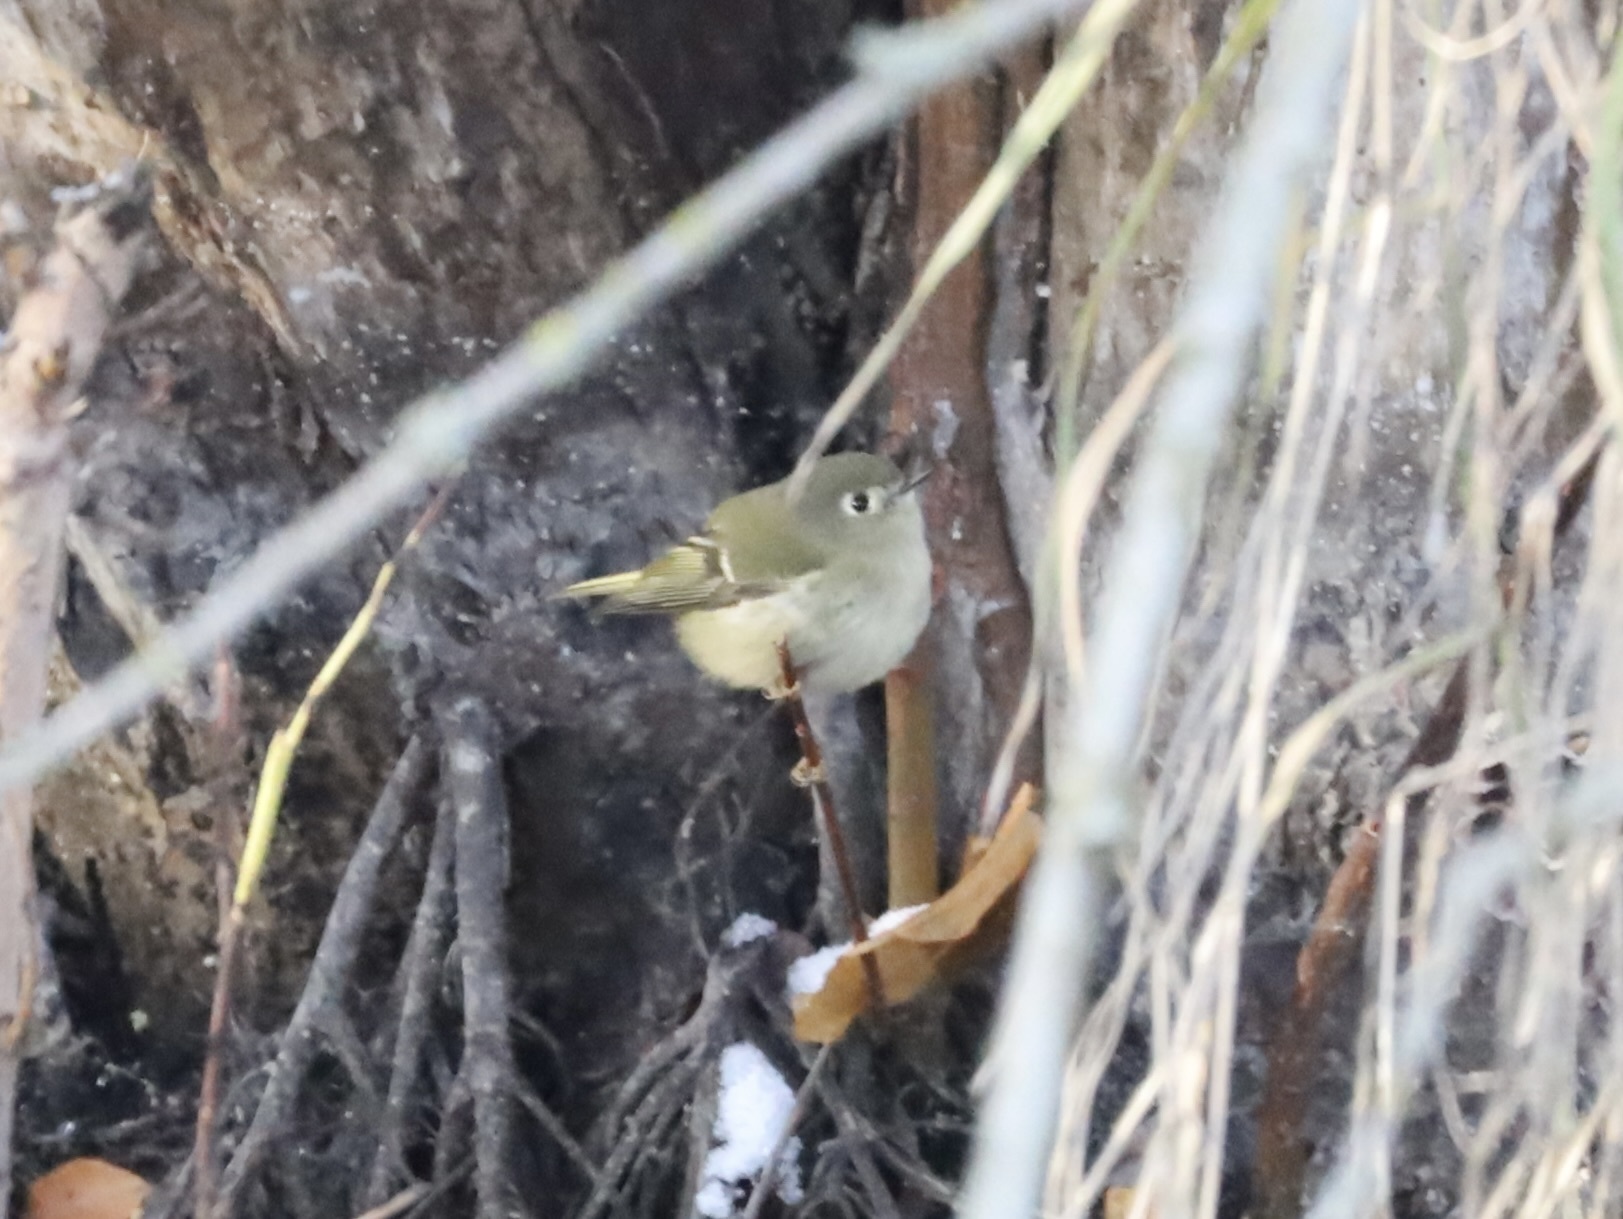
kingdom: Animalia
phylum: Chordata
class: Aves
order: Passeriformes
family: Regulidae
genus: Regulus
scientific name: Regulus calendula
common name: Ruby-crowned kinglet
